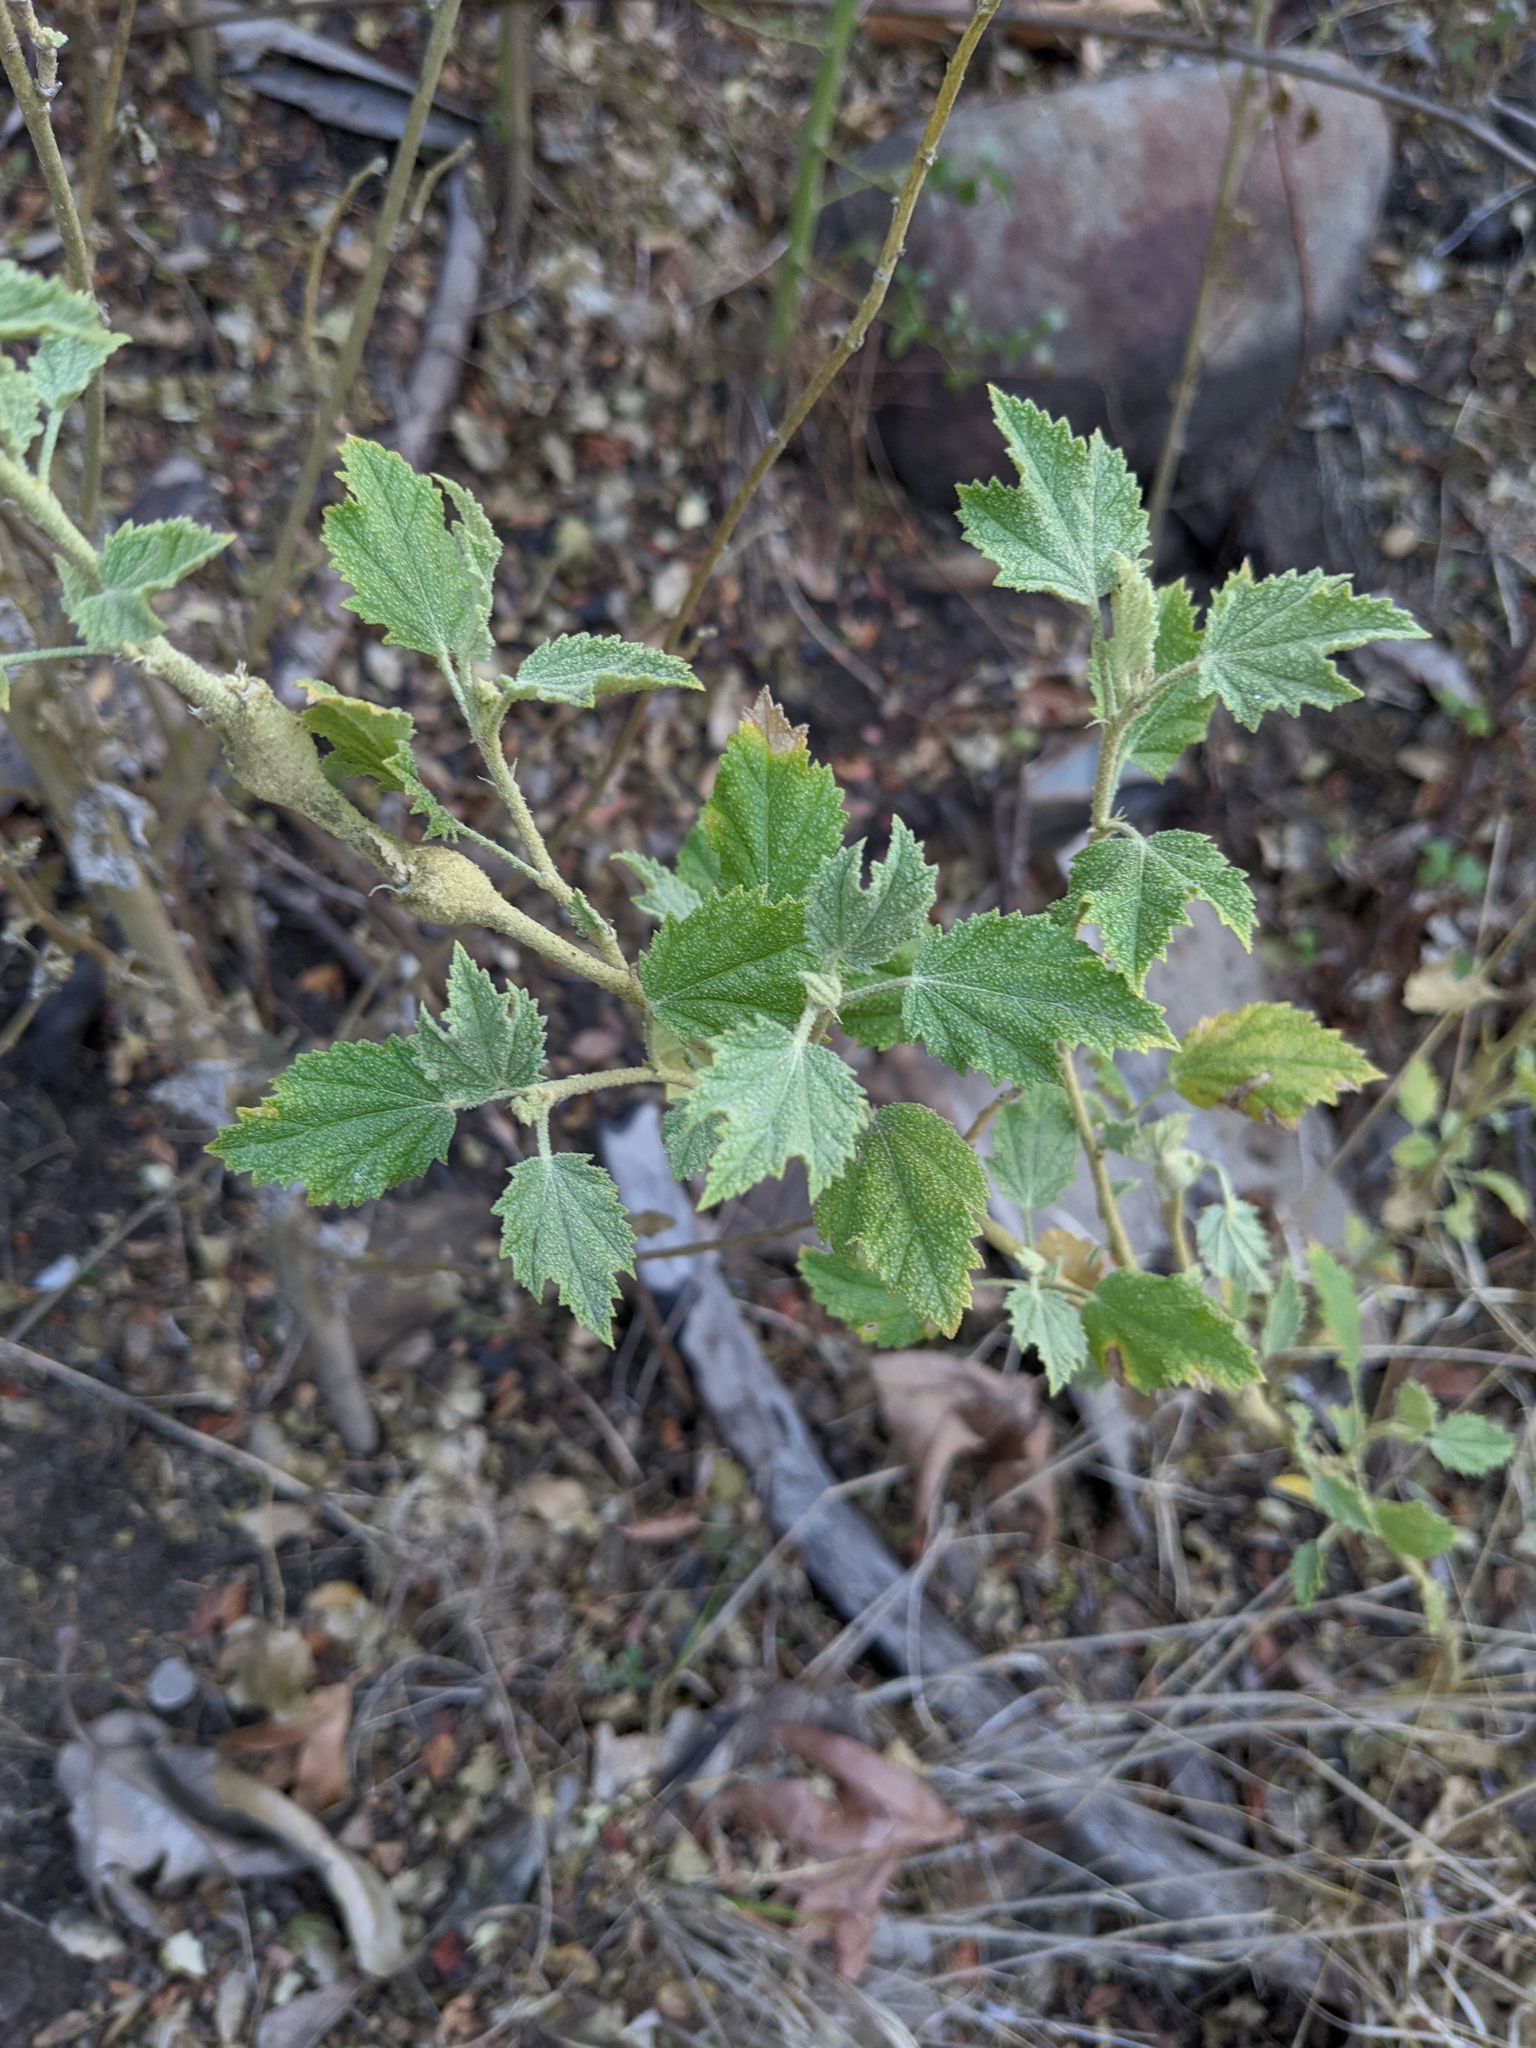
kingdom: Plantae
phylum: Tracheophyta
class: Magnoliopsida
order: Malvales
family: Malvaceae
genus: Malacothamnus
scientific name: Malacothamnus fasciculatus
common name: Sant cruz island bush-mallow
